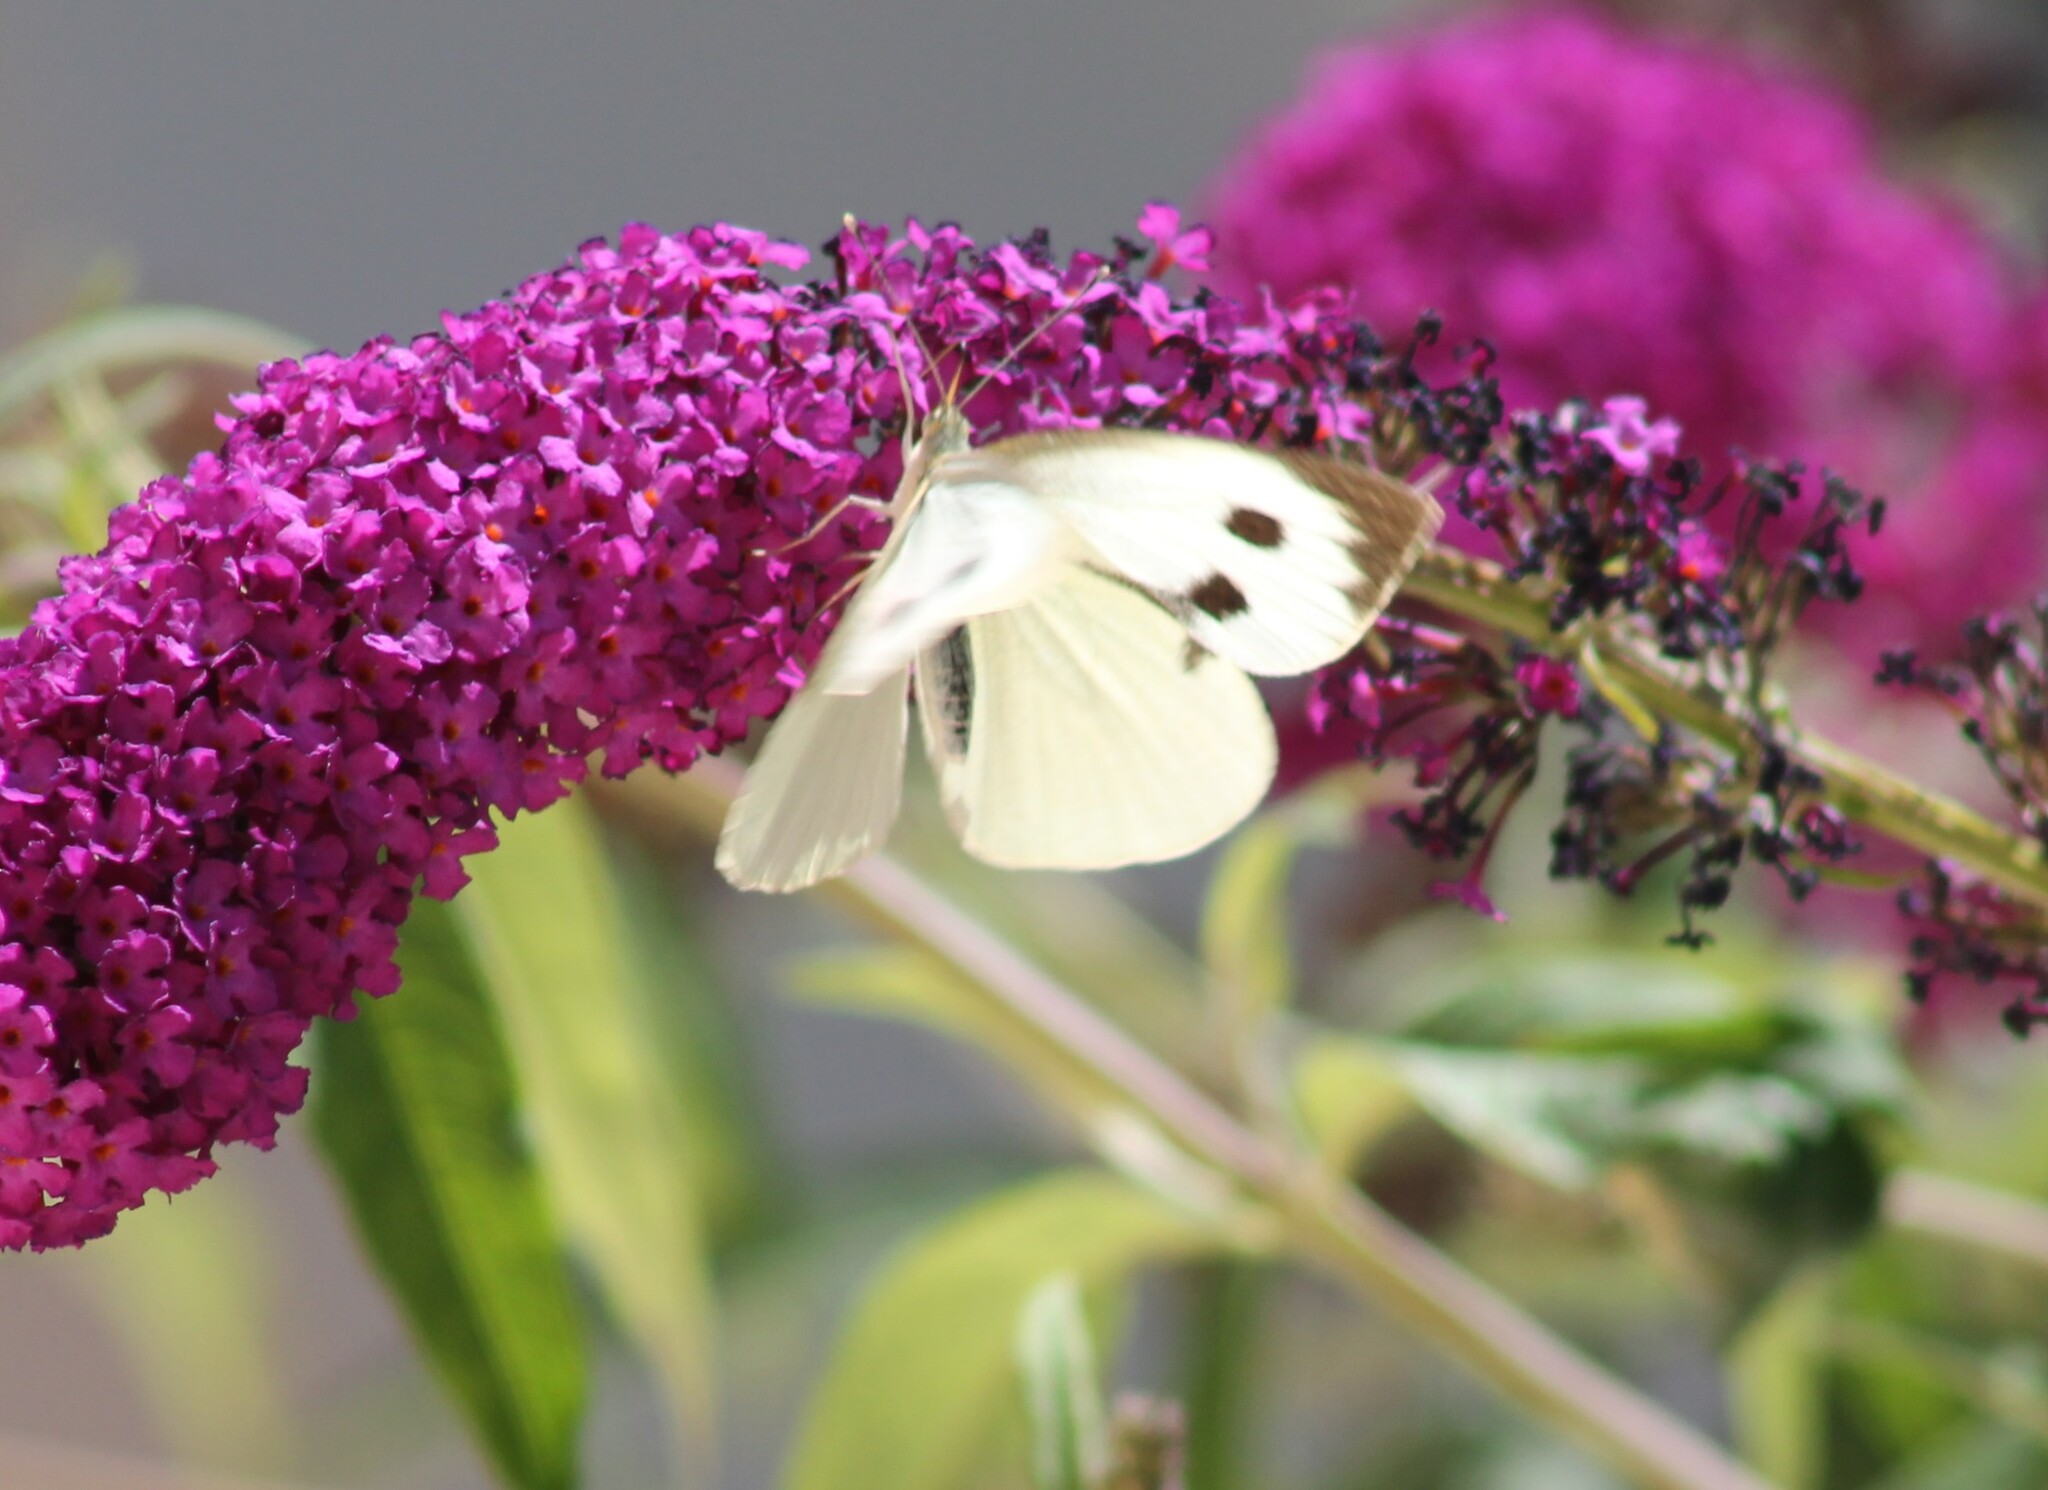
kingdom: Animalia
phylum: Arthropoda
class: Insecta
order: Lepidoptera
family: Pieridae
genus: Pieris
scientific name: Pieris brassicae
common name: Large white
